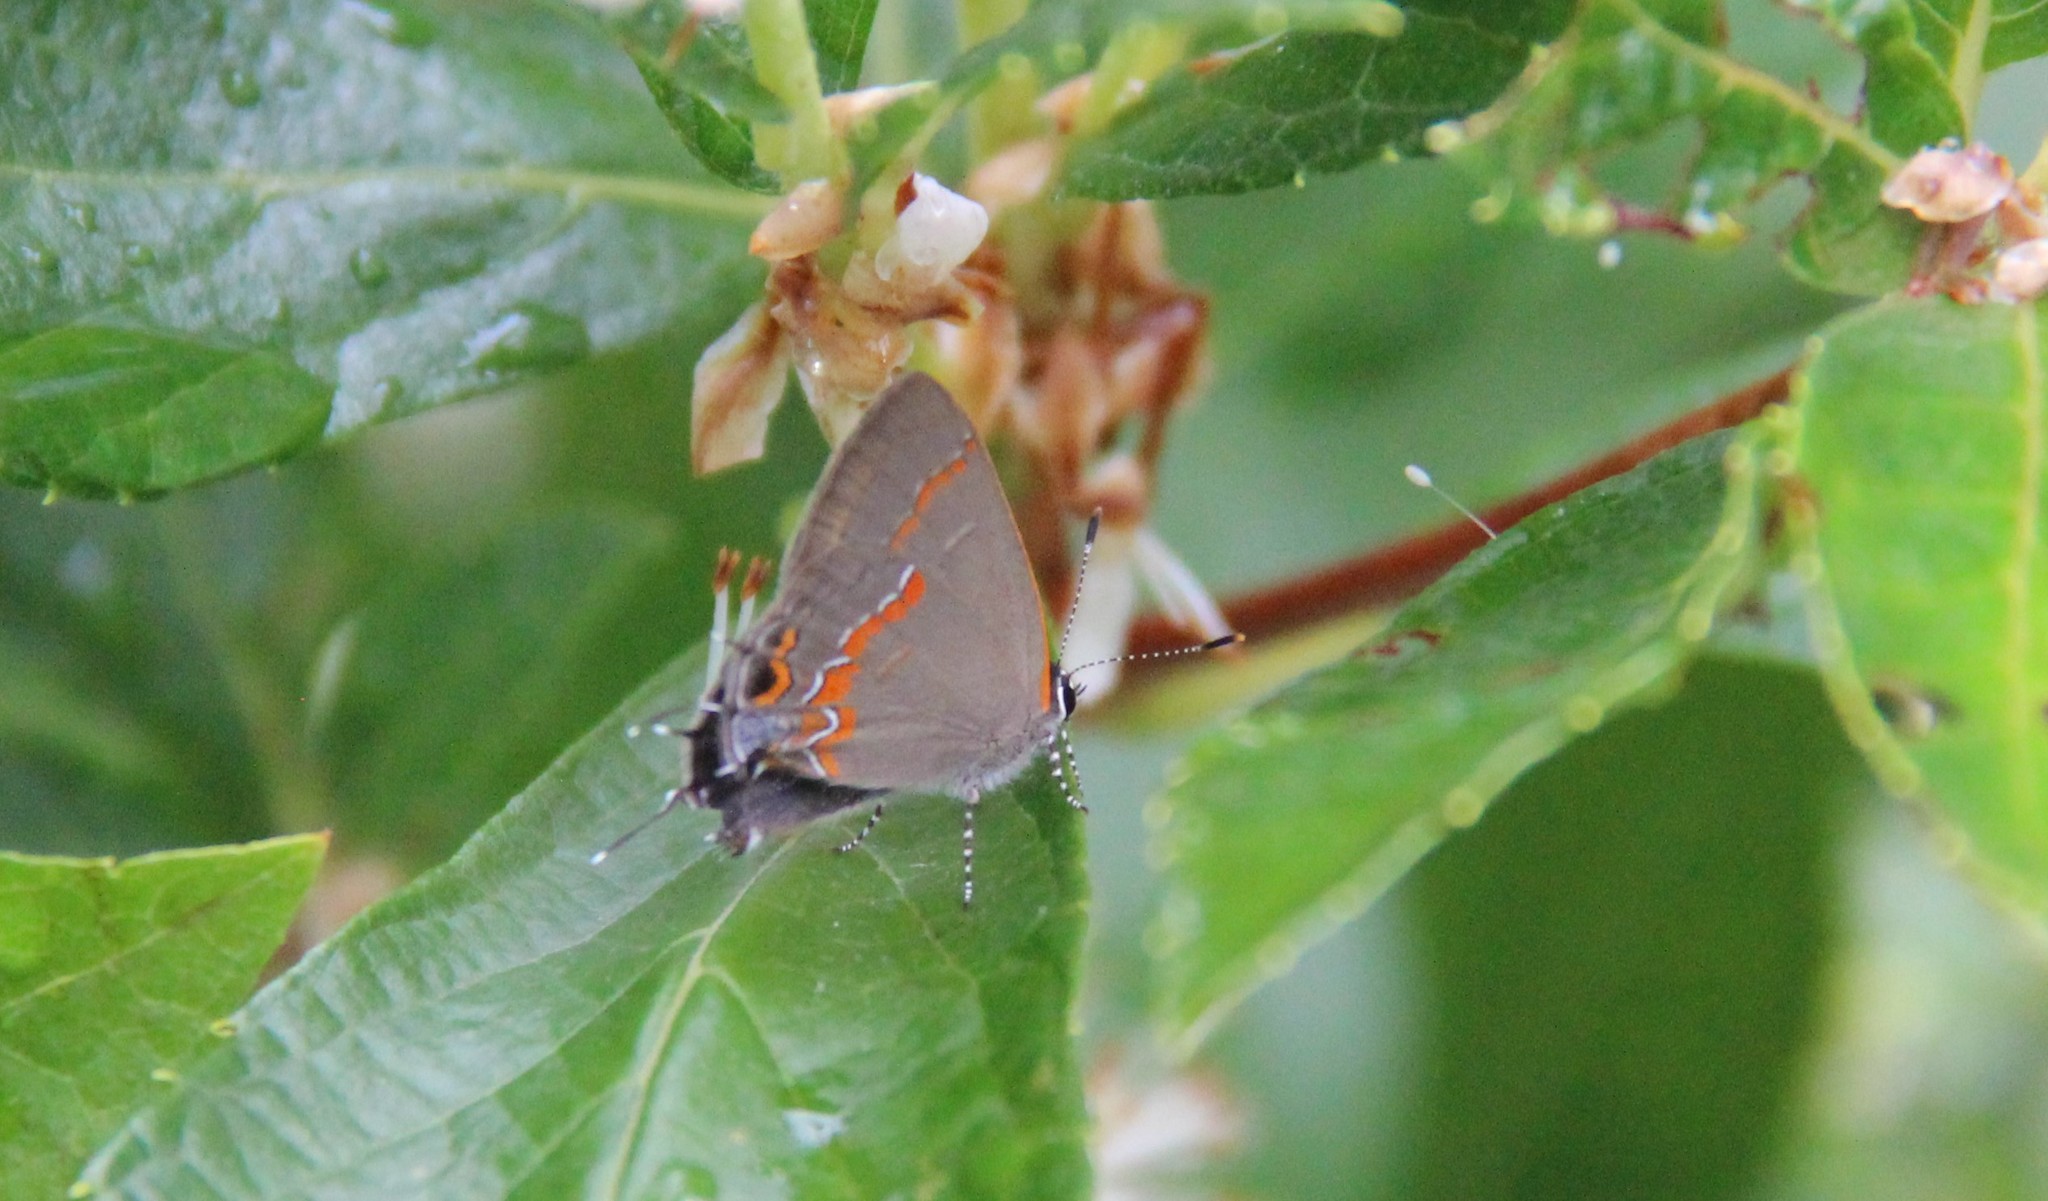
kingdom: Animalia
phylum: Arthropoda
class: Insecta
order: Lepidoptera
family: Lycaenidae
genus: Calycopis
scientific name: Calycopis cecrops
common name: Red-banded hairstreak
